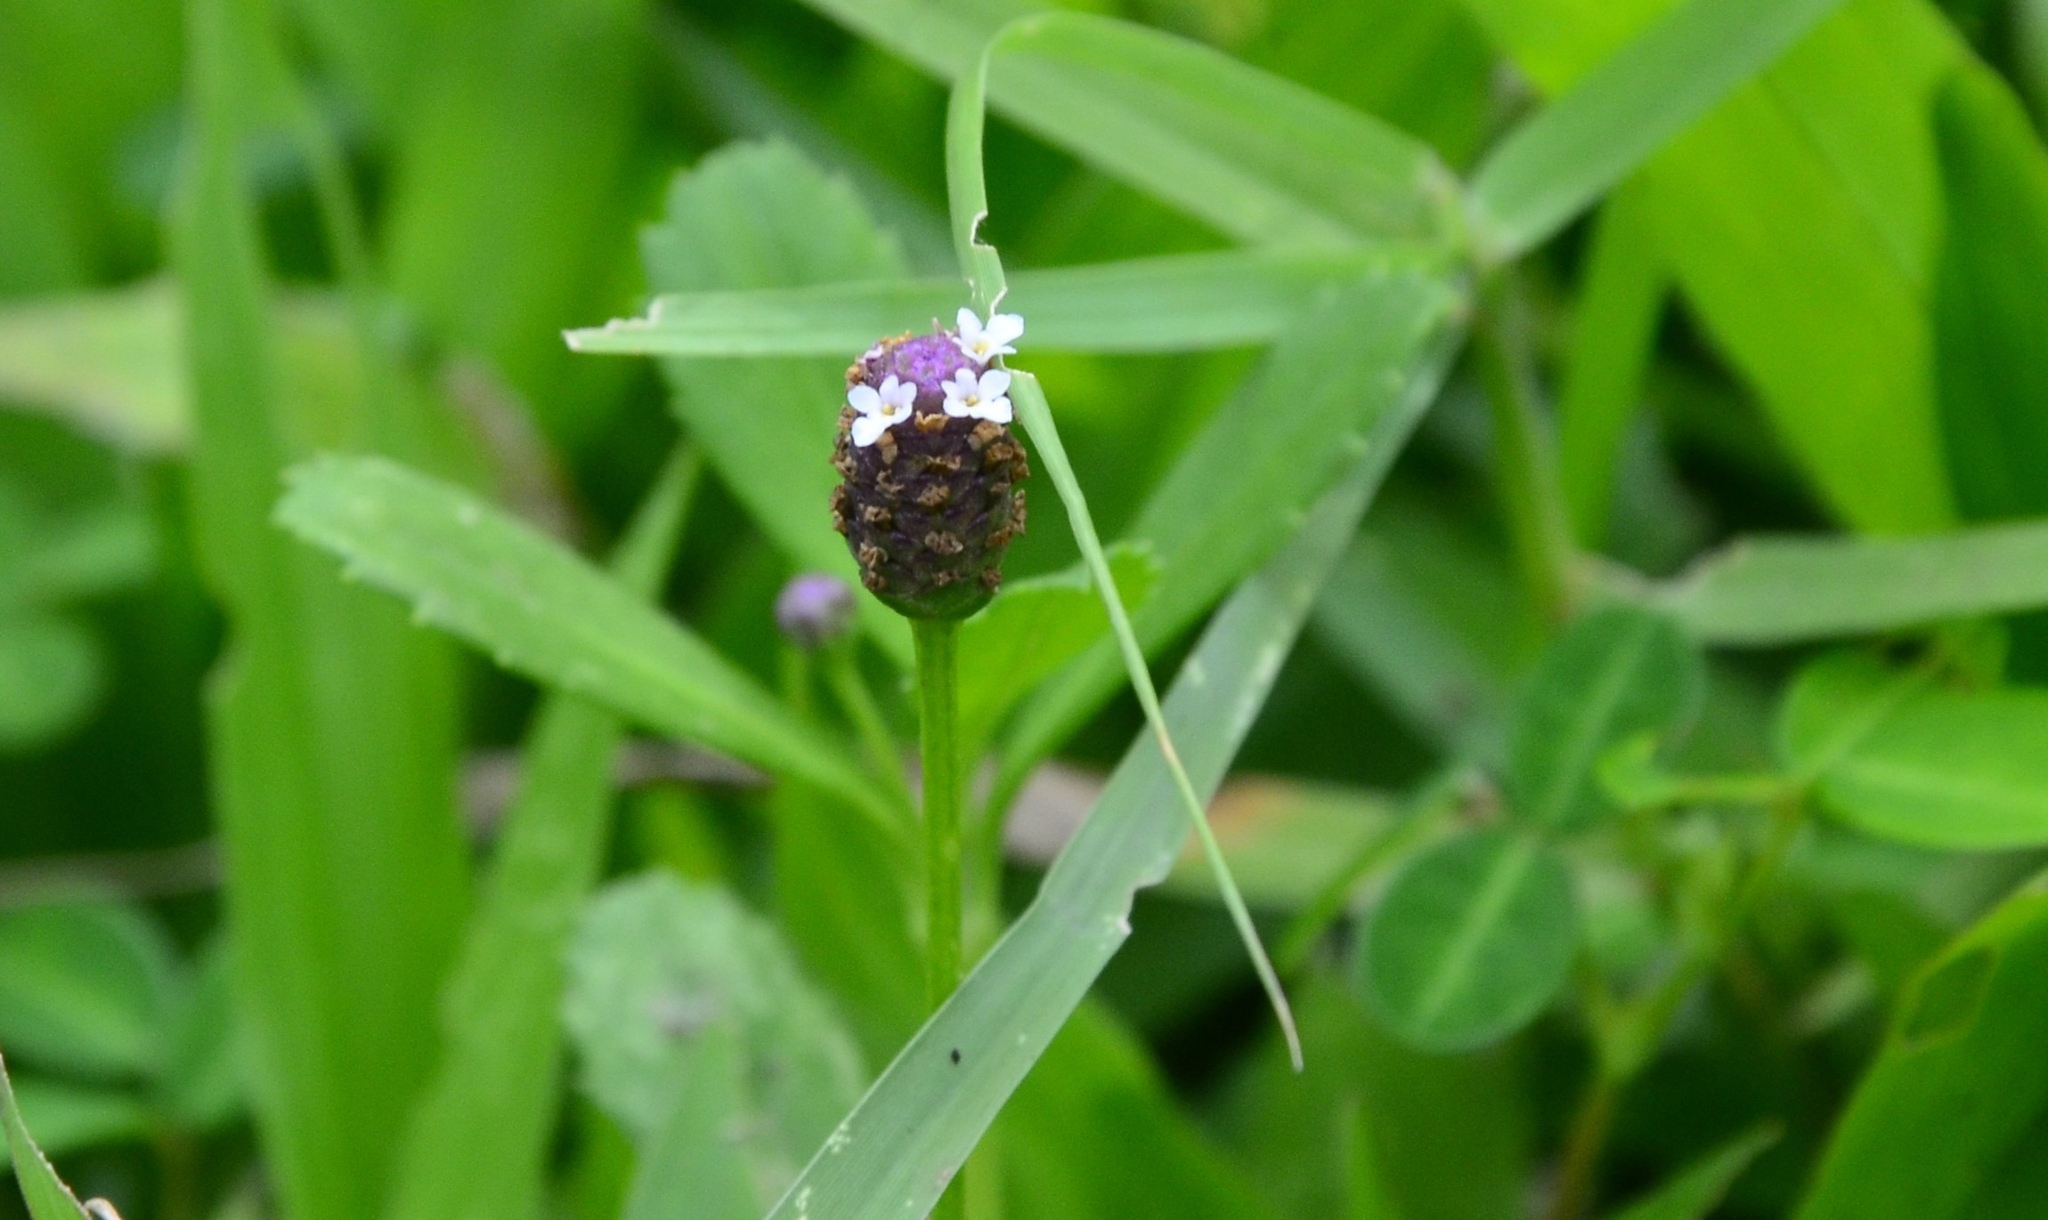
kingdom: Plantae
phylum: Tracheophyta
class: Magnoliopsida
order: Lamiales
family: Verbenaceae
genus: Phyla
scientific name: Phyla nodiflora
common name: Frogfruit
